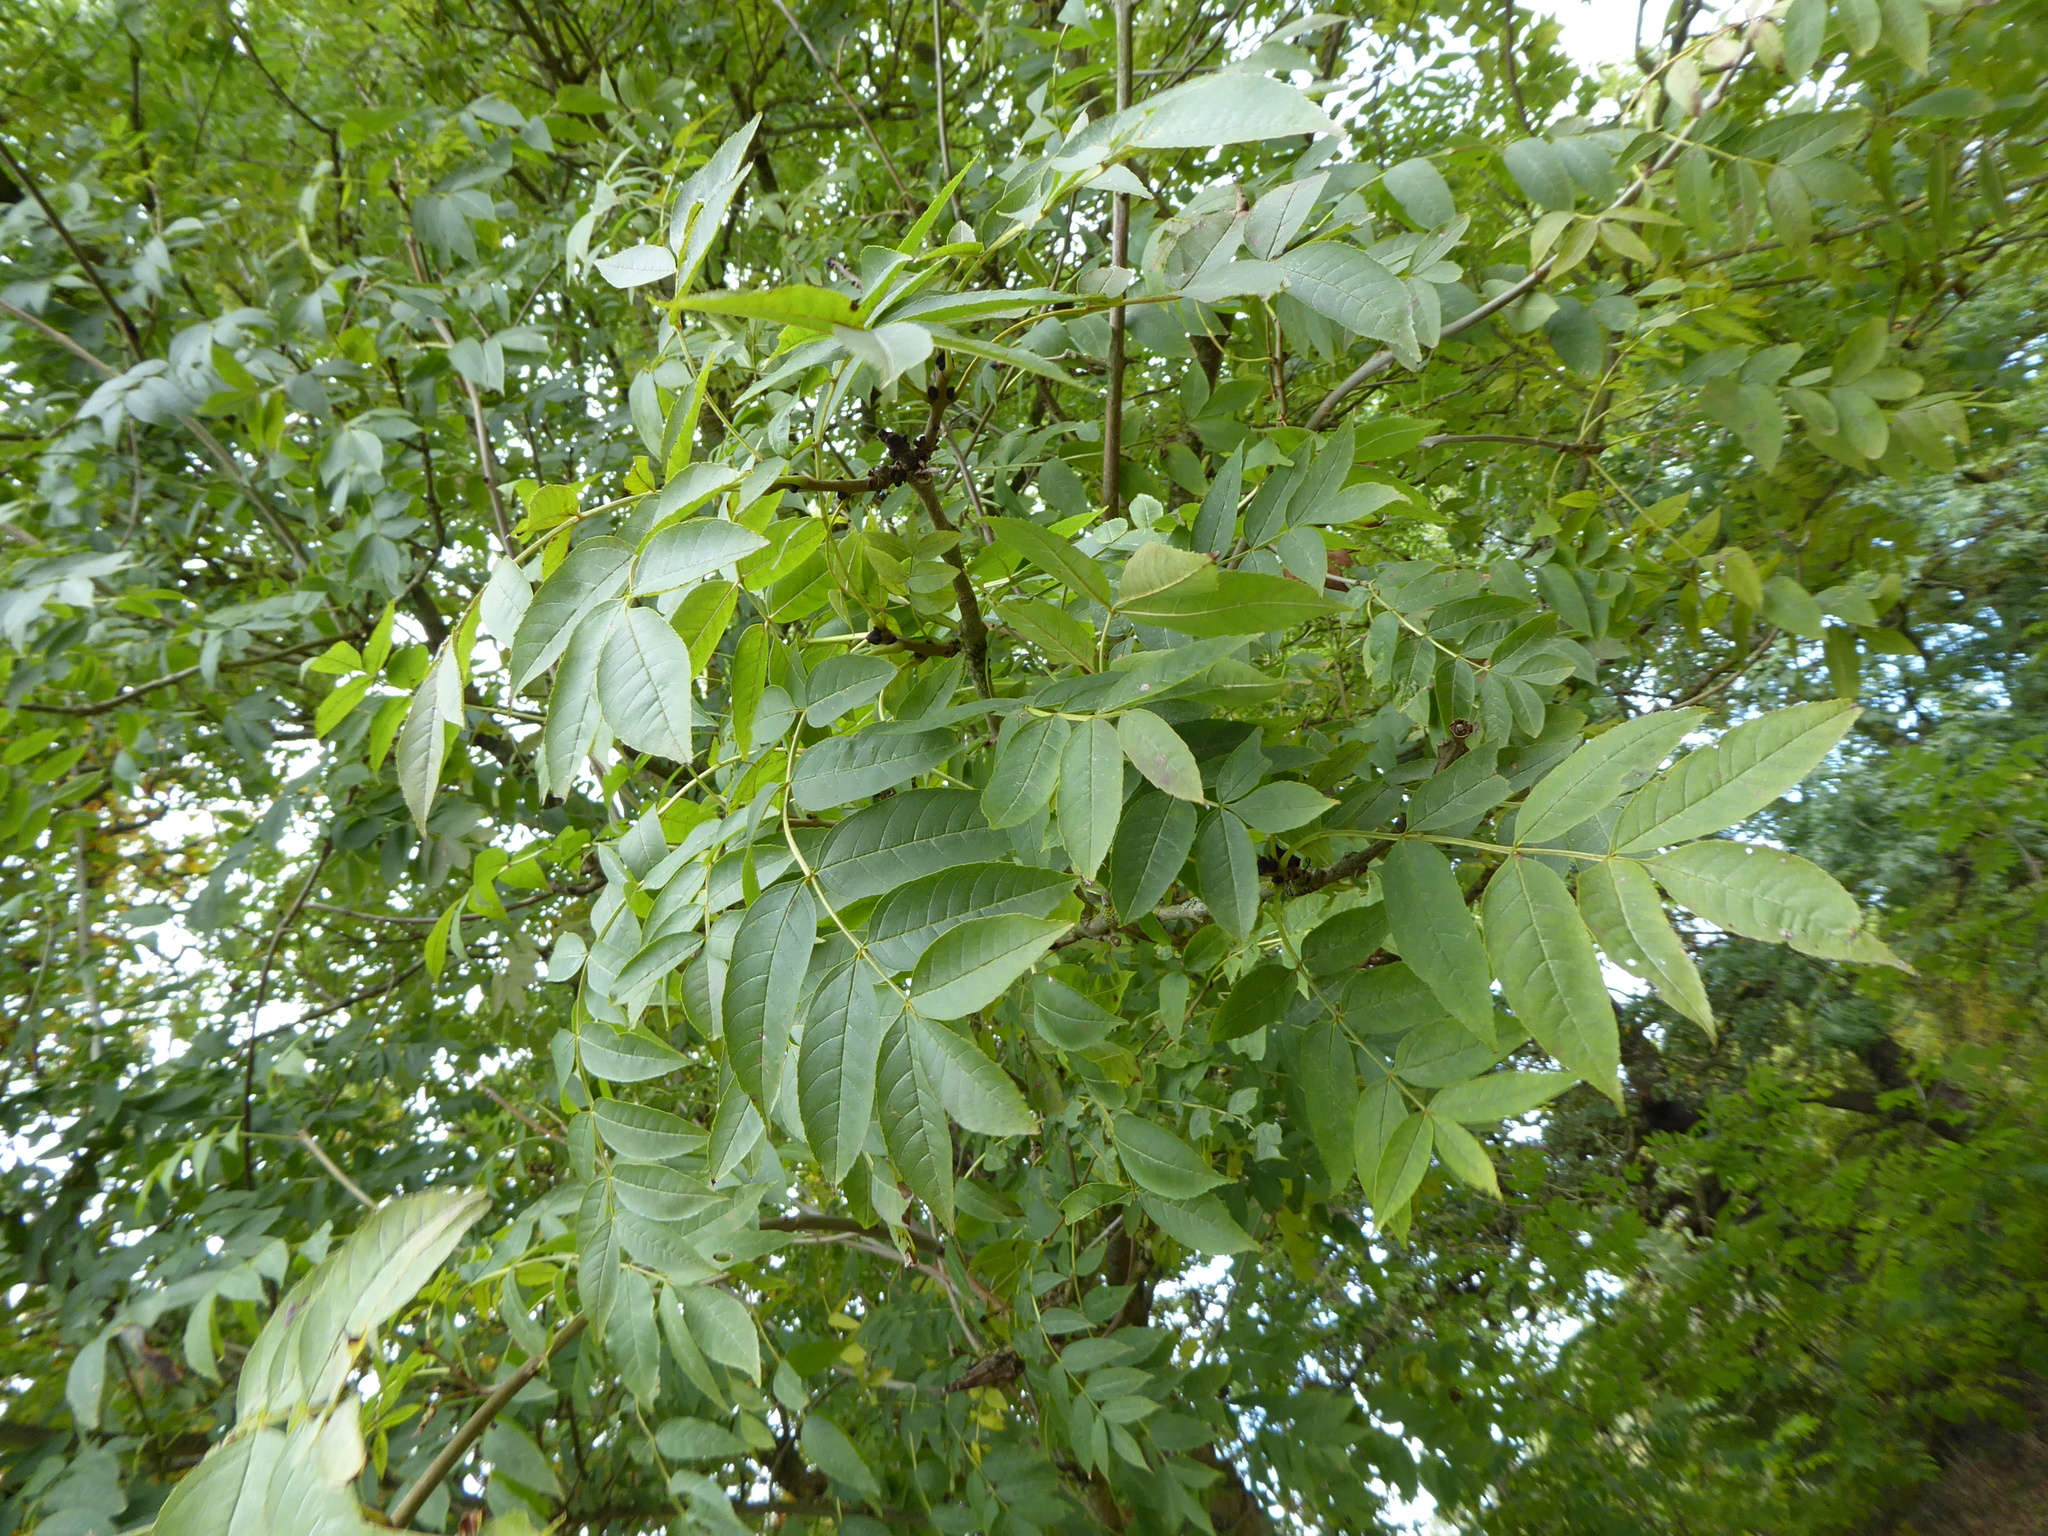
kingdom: Plantae
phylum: Tracheophyta
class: Magnoliopsida
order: Lamiales
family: Oleaceae
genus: Fraxinus
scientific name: Fraxinus excelsior
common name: European ash
